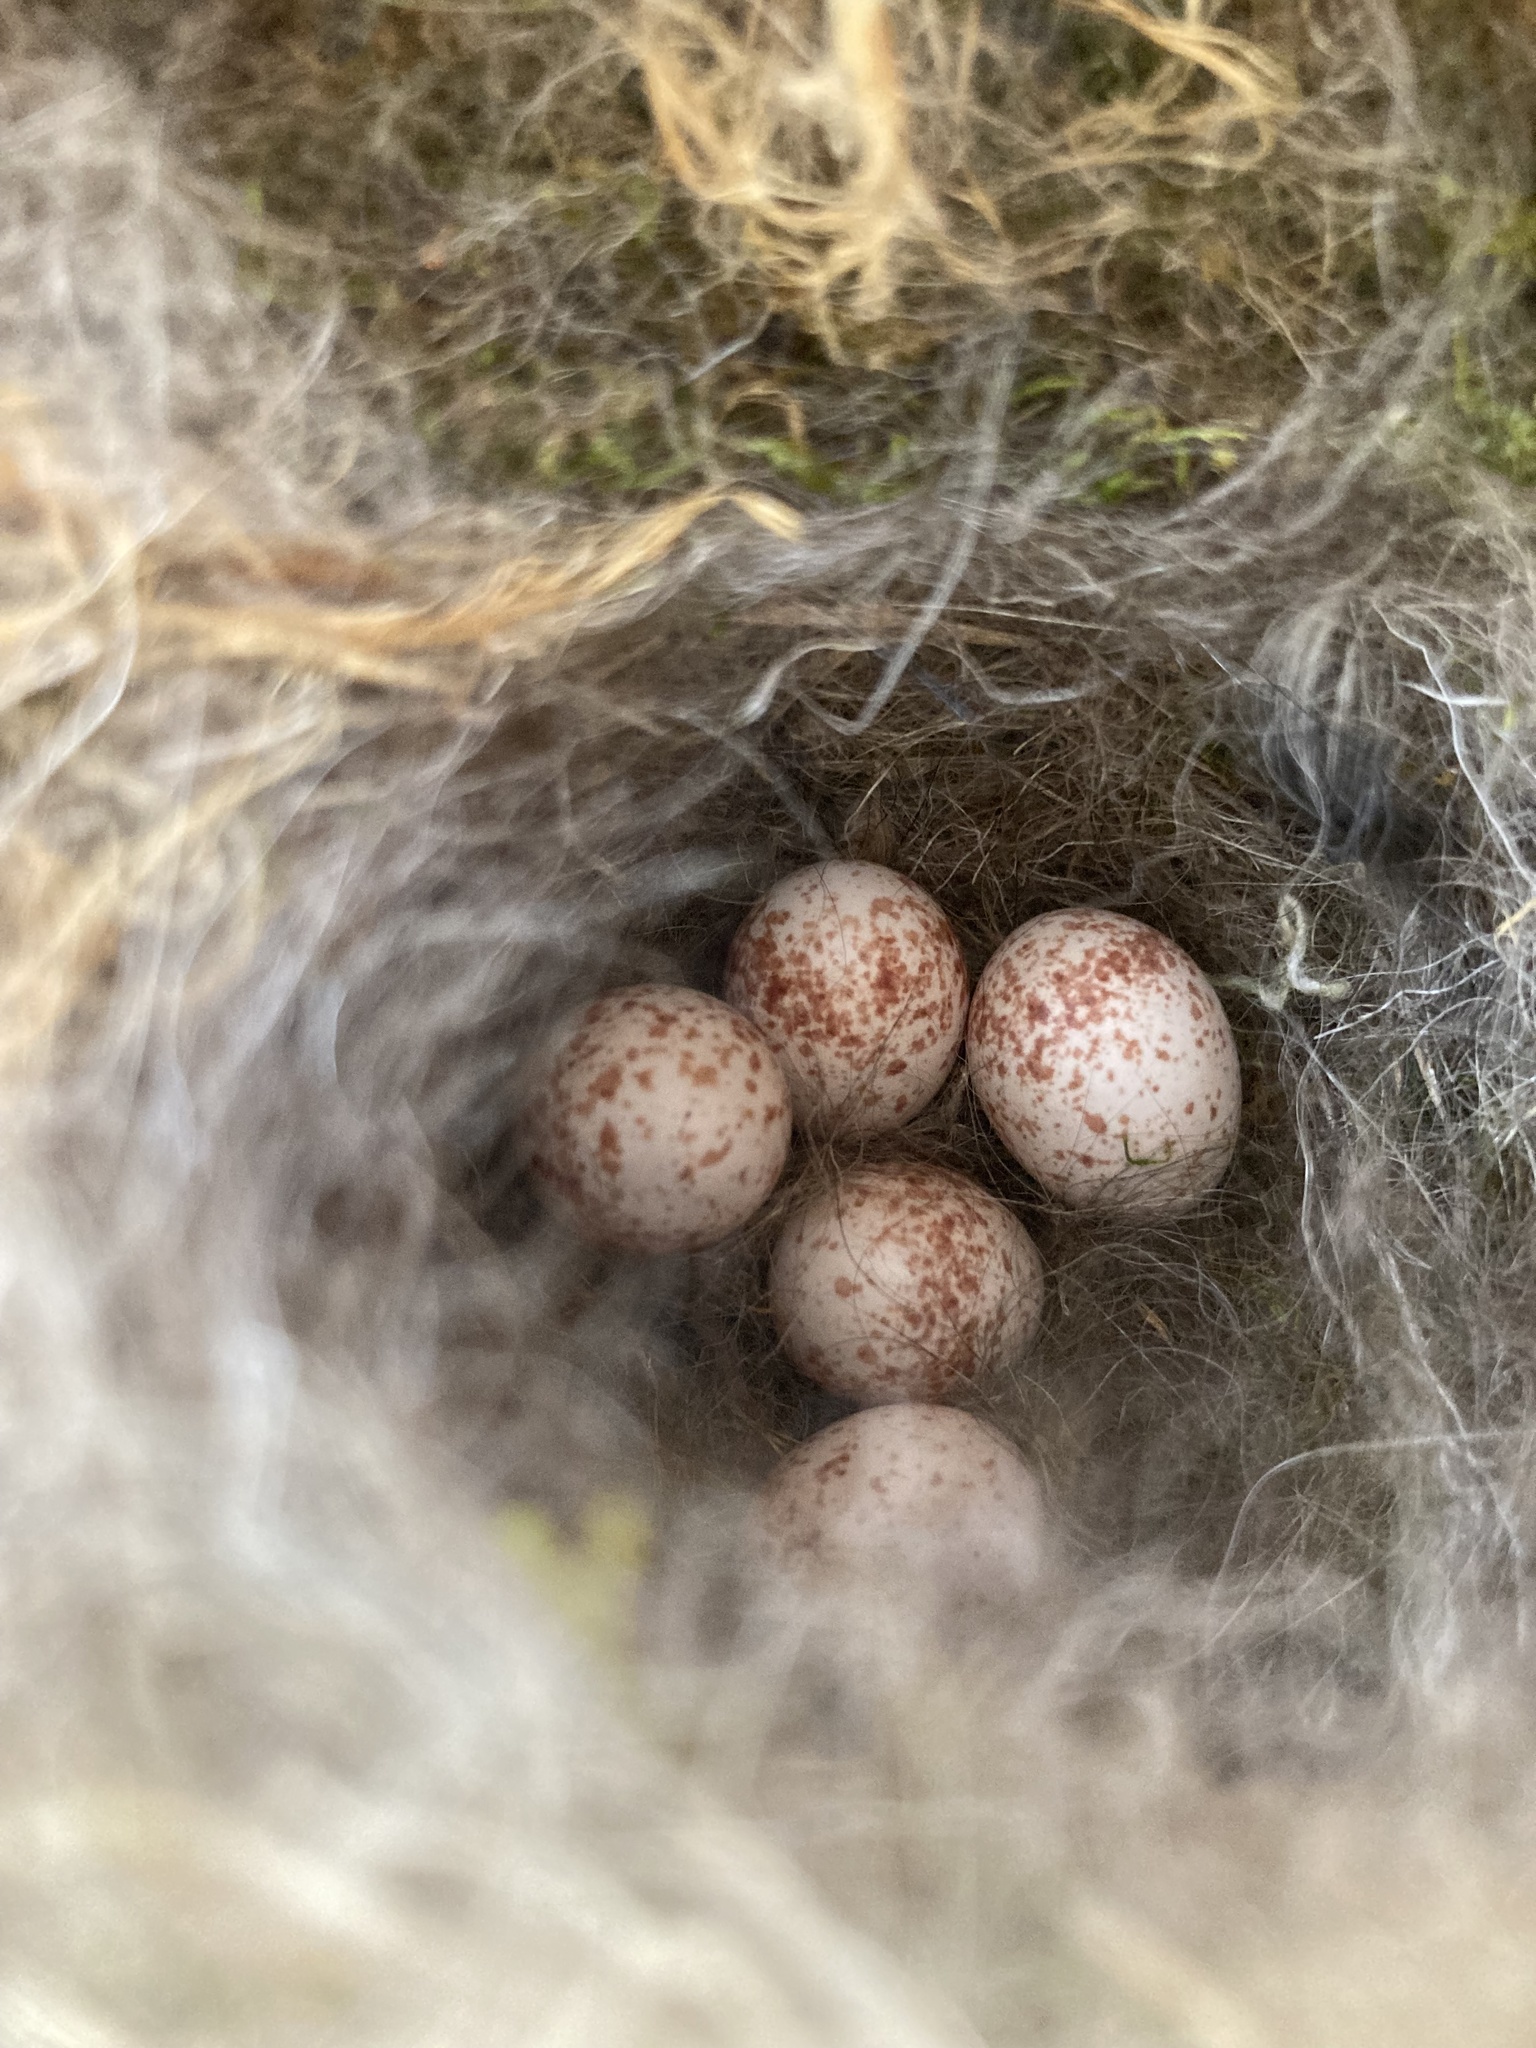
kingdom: Animalia
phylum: Chordata
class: Aves
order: Passeriformes
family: Paridae
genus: Poecile
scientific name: Poecile carolinensis
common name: Carolina chickadee
